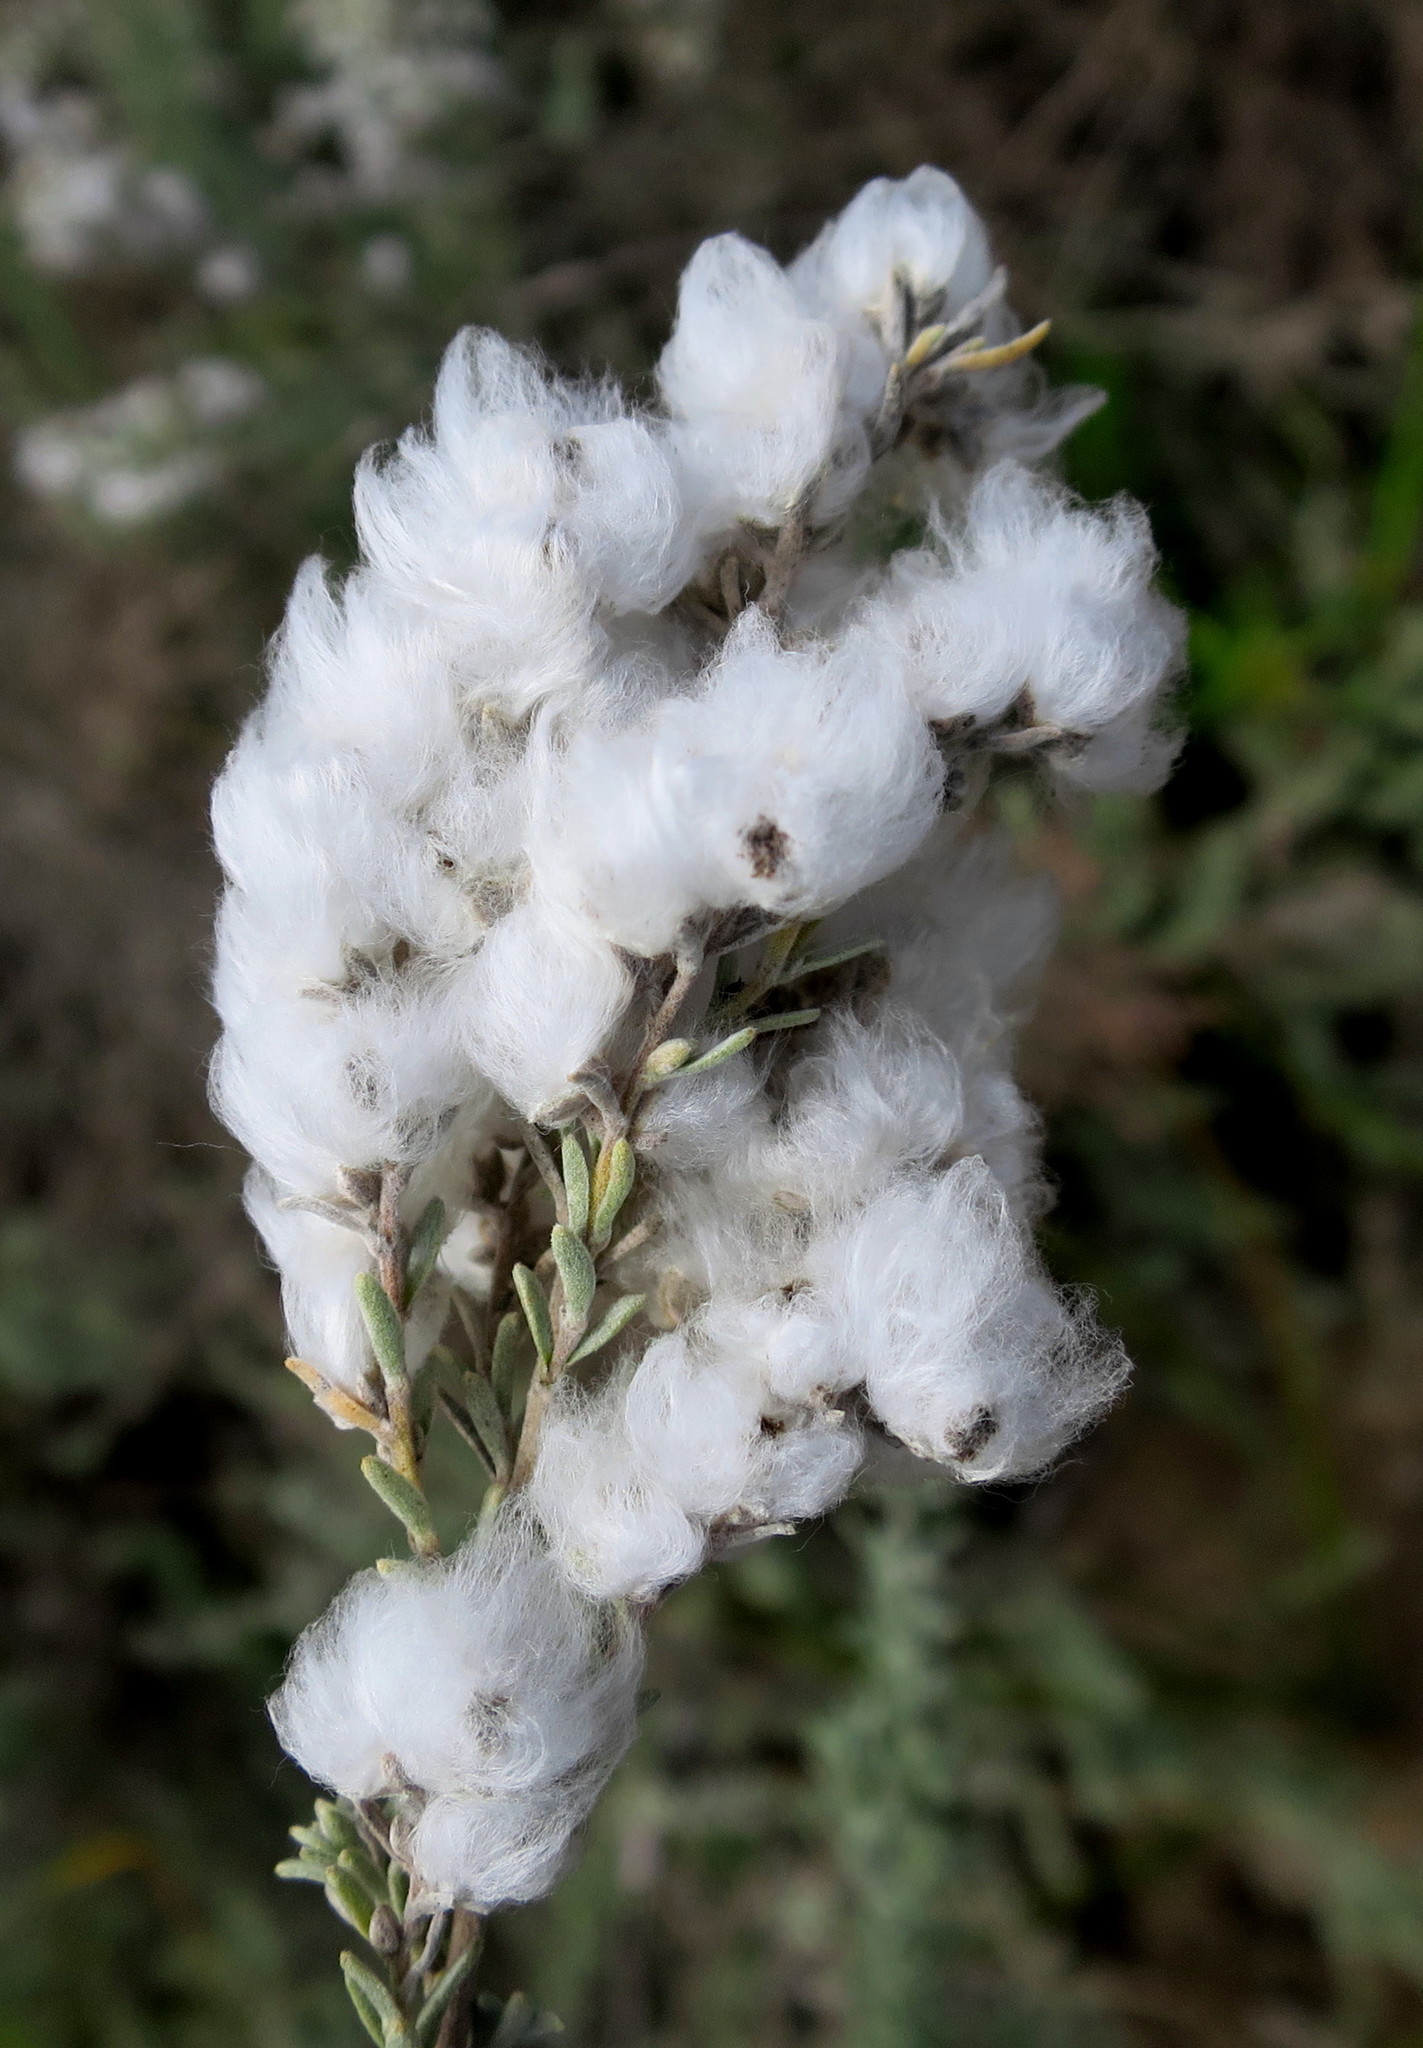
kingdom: Plantae
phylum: Tracheophyta
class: Magnoliopsida
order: Asterales
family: Asteraceae
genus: Eriocephalus
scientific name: Eriocephalus racemosus
